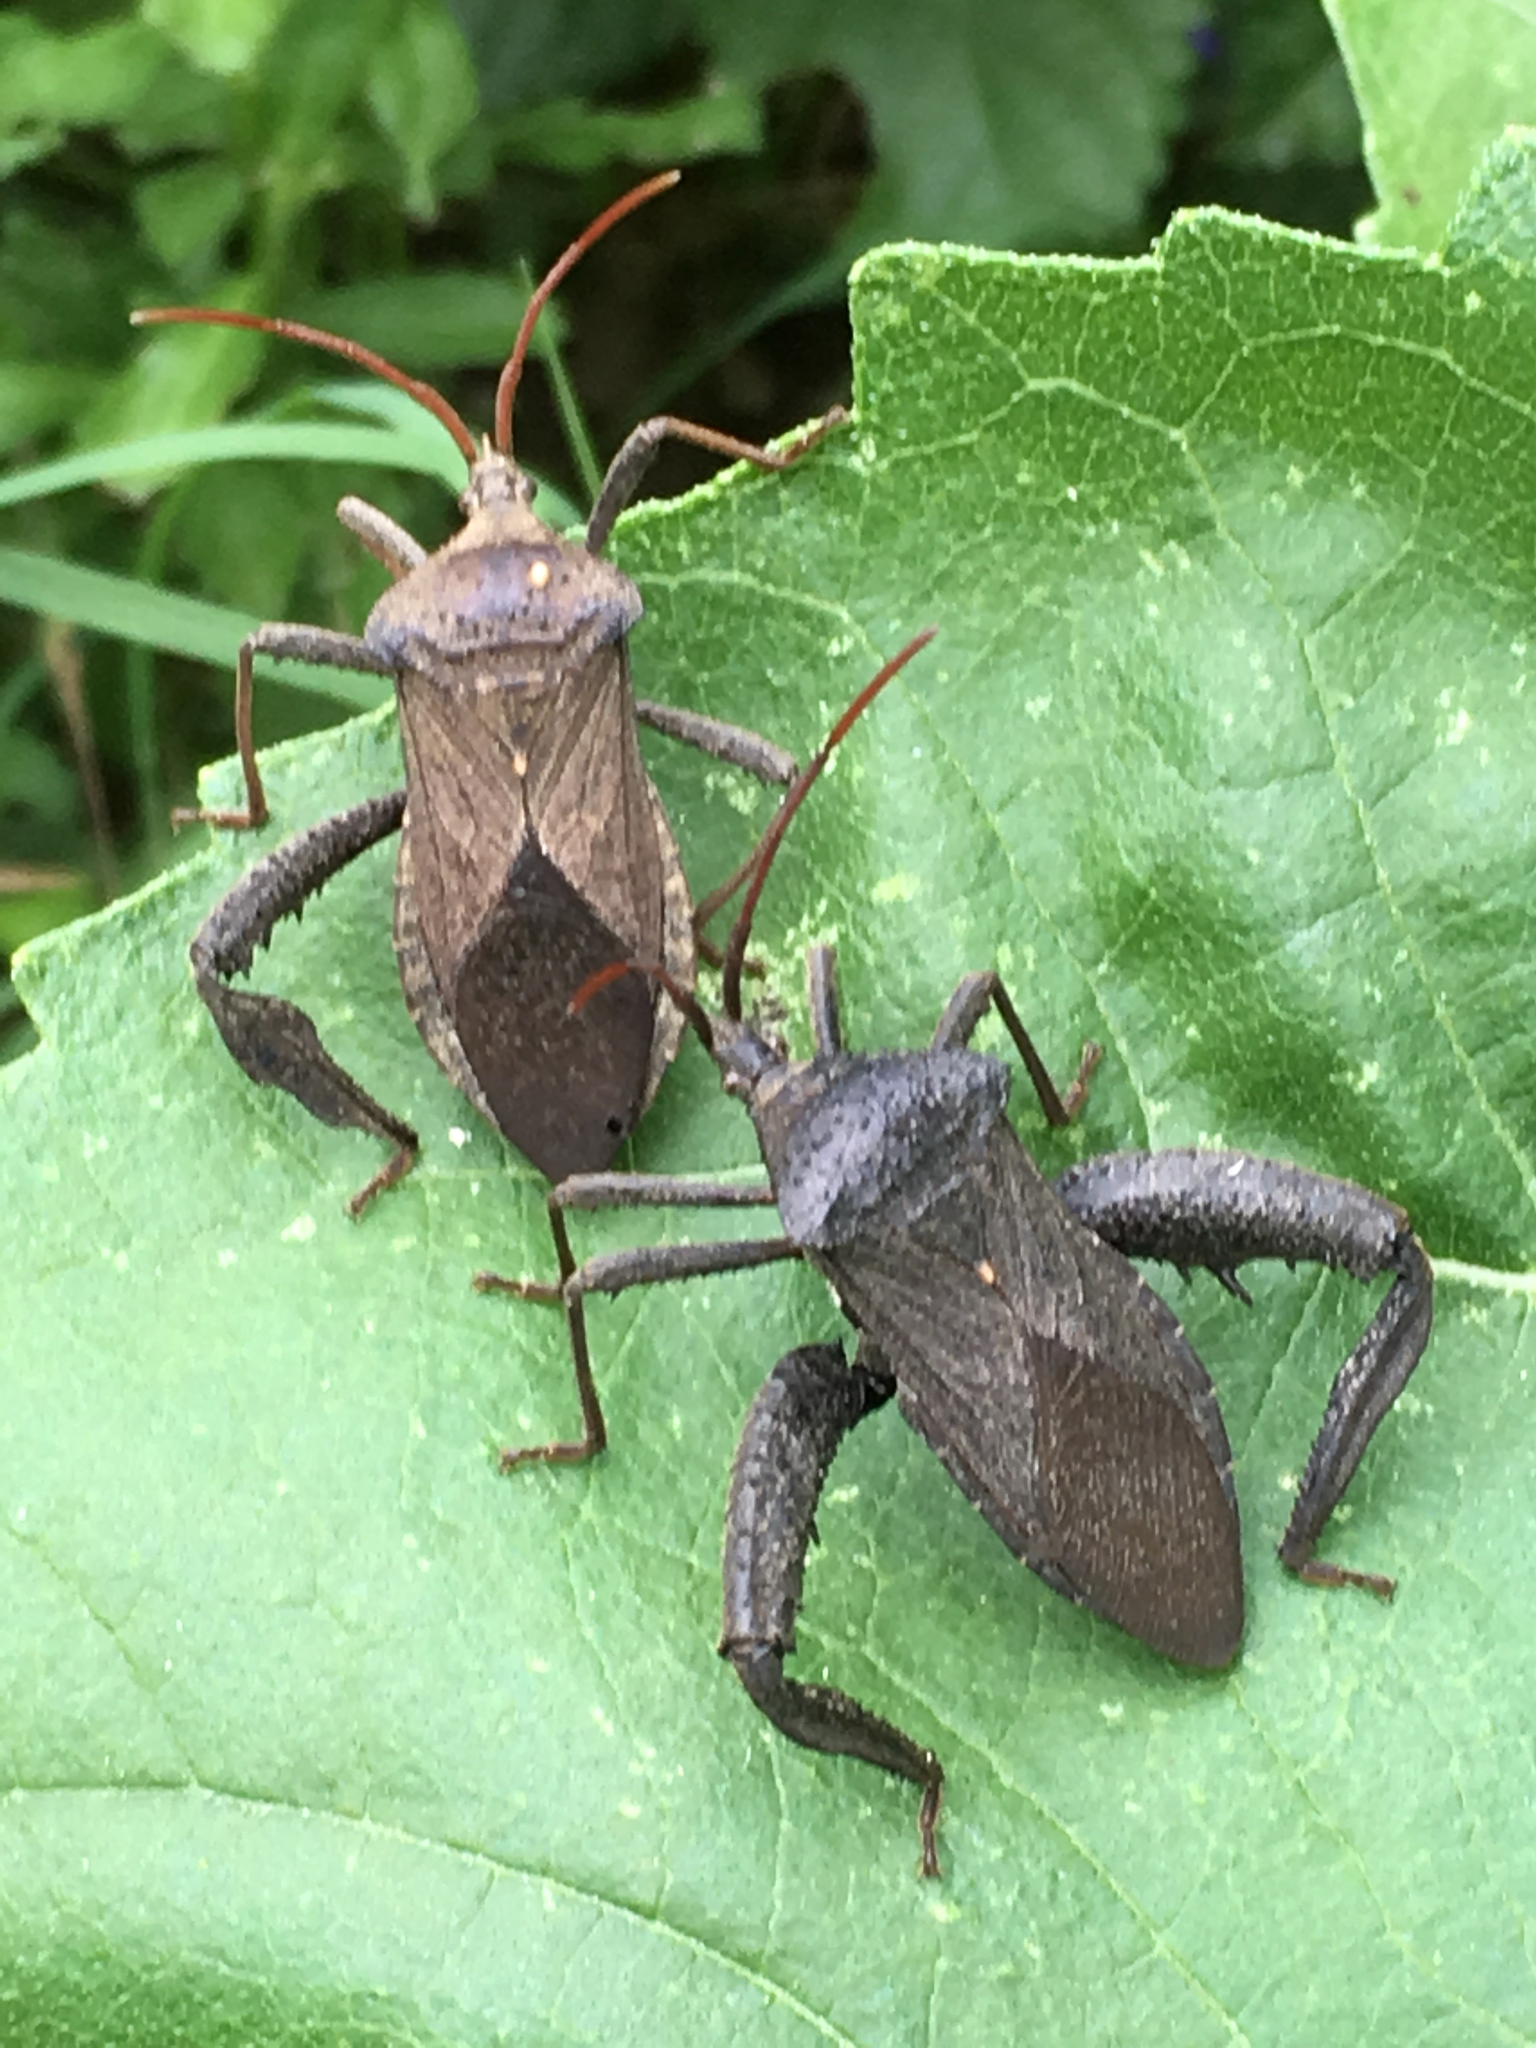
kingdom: Animalia
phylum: Arthropoda
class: Insecta
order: Hemiptera
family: Coreidae
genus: Acanthocephala
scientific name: Acanthocephala femorata
